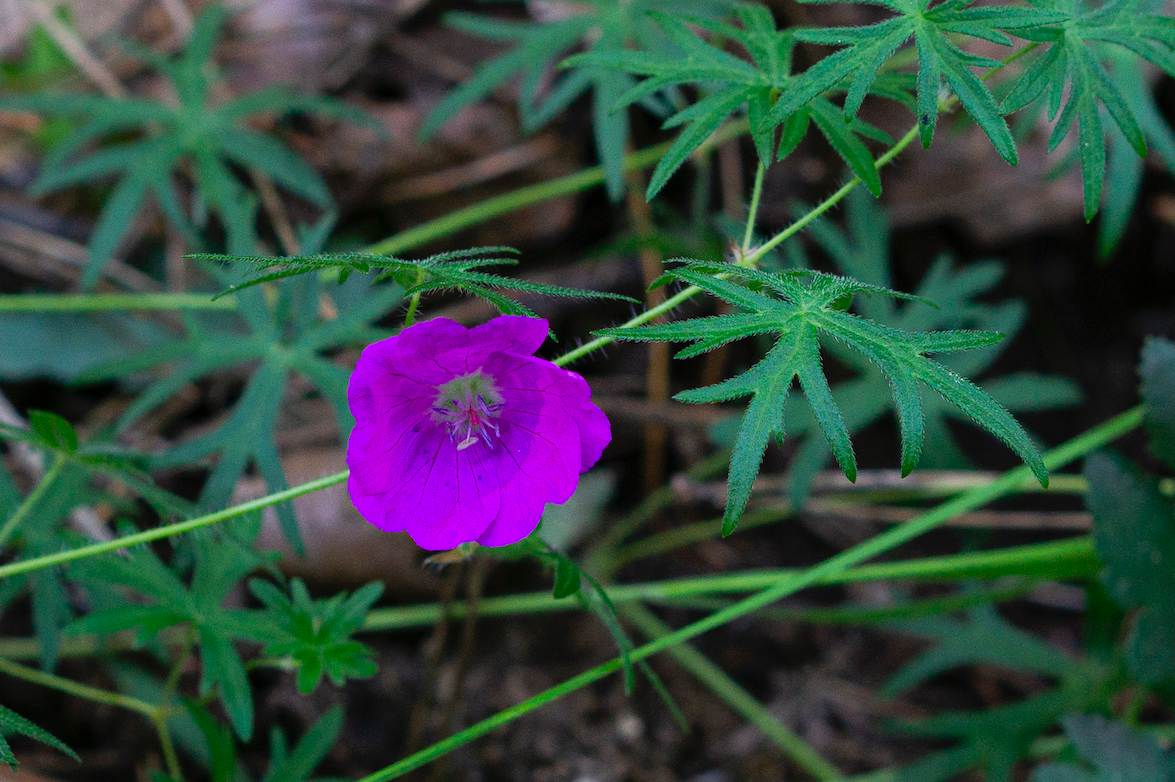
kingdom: Plantae
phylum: Tracheophyta
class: Magnoliopsida
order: Geraniales
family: Geraniaceae
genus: Geranium
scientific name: Geranium sanguineum
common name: Bloody crane's-bill
